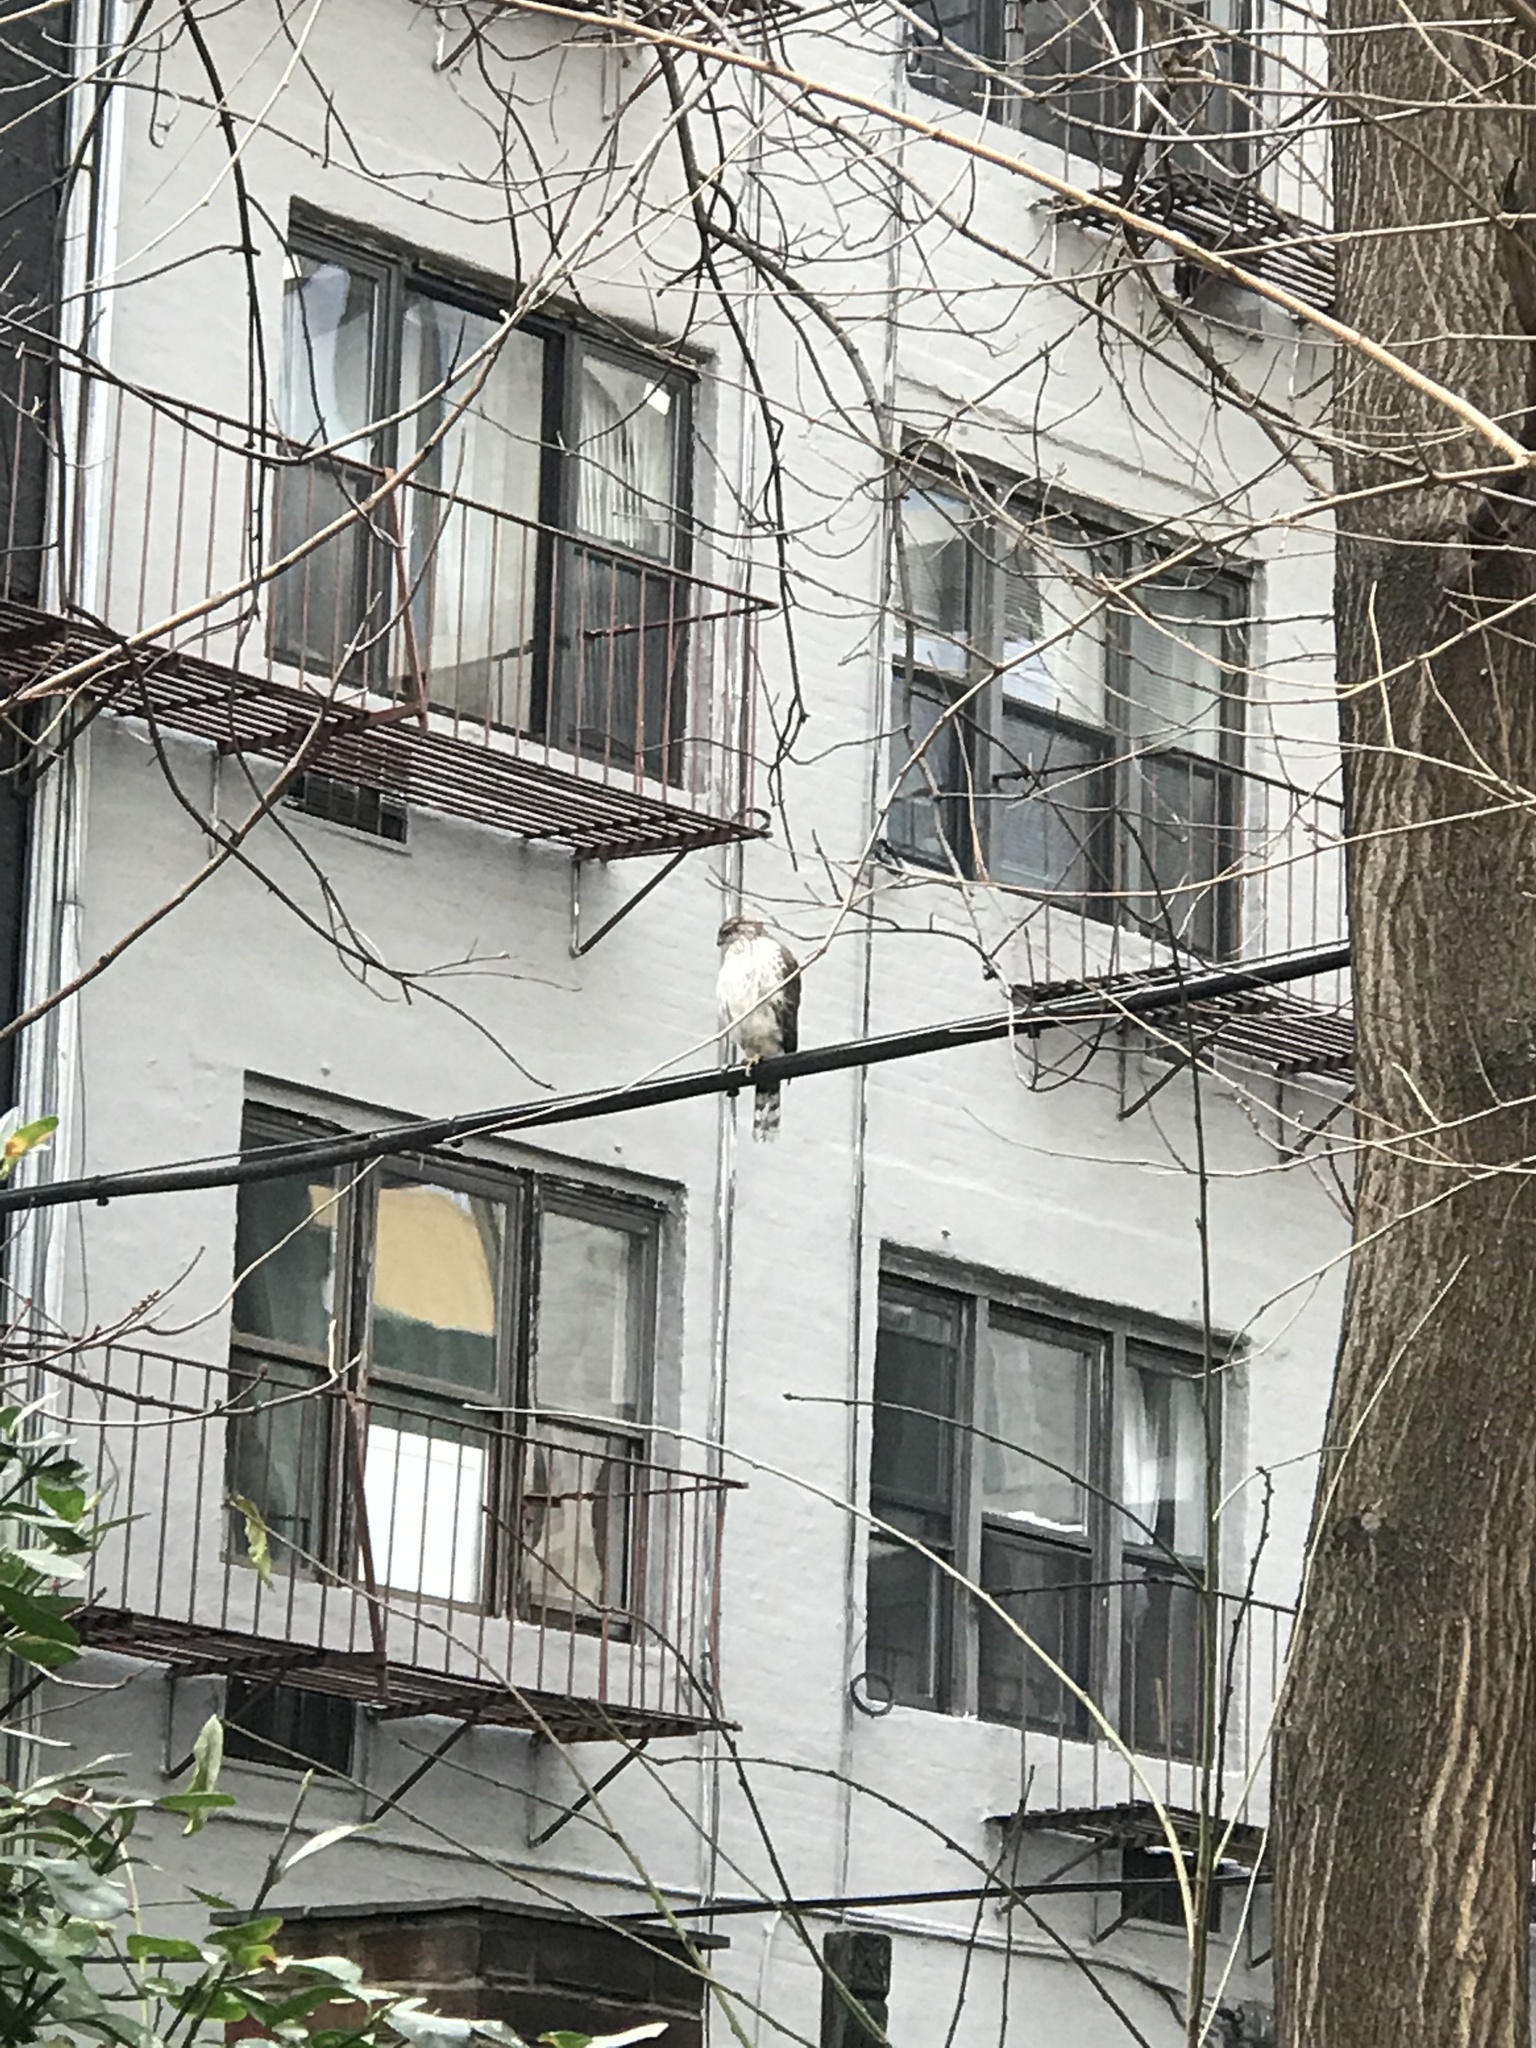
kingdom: Animalia
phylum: Chordata
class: Aves
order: Accipitriformes
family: Accipitridae
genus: Accipiter
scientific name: Accipiter cooperii
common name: Cooper's hawk
